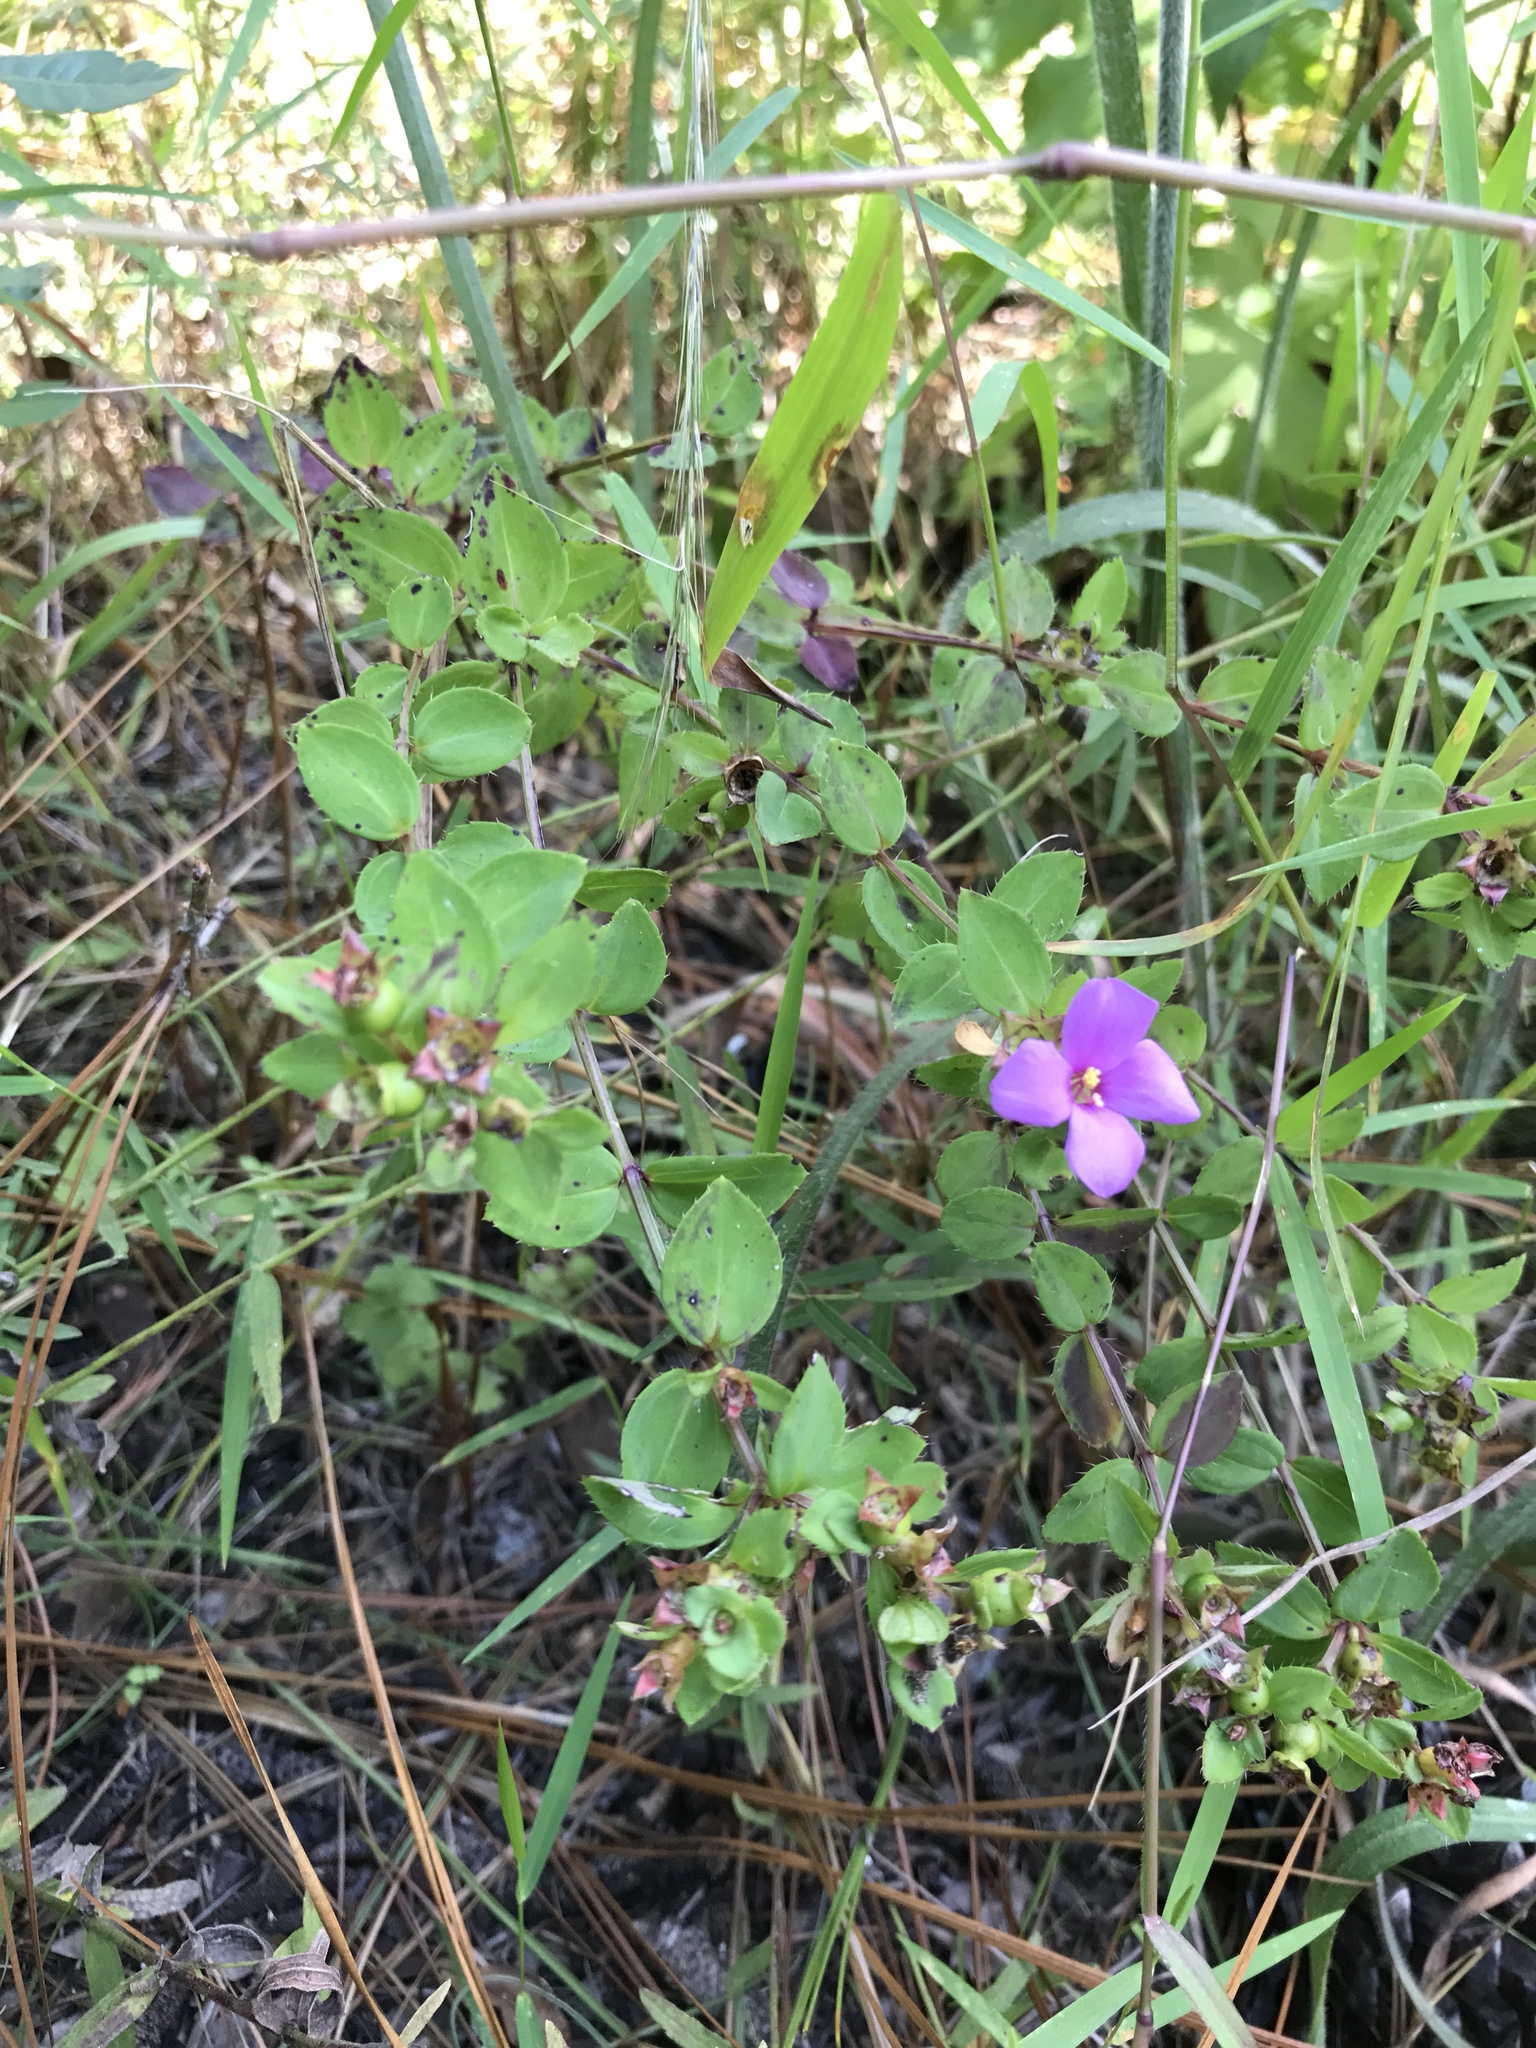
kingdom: Plantae
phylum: Tracheophyta
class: Magnoliopsida
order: Myrtales
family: Melastomataceae
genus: Rhexia
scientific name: Rhexia petiolata
